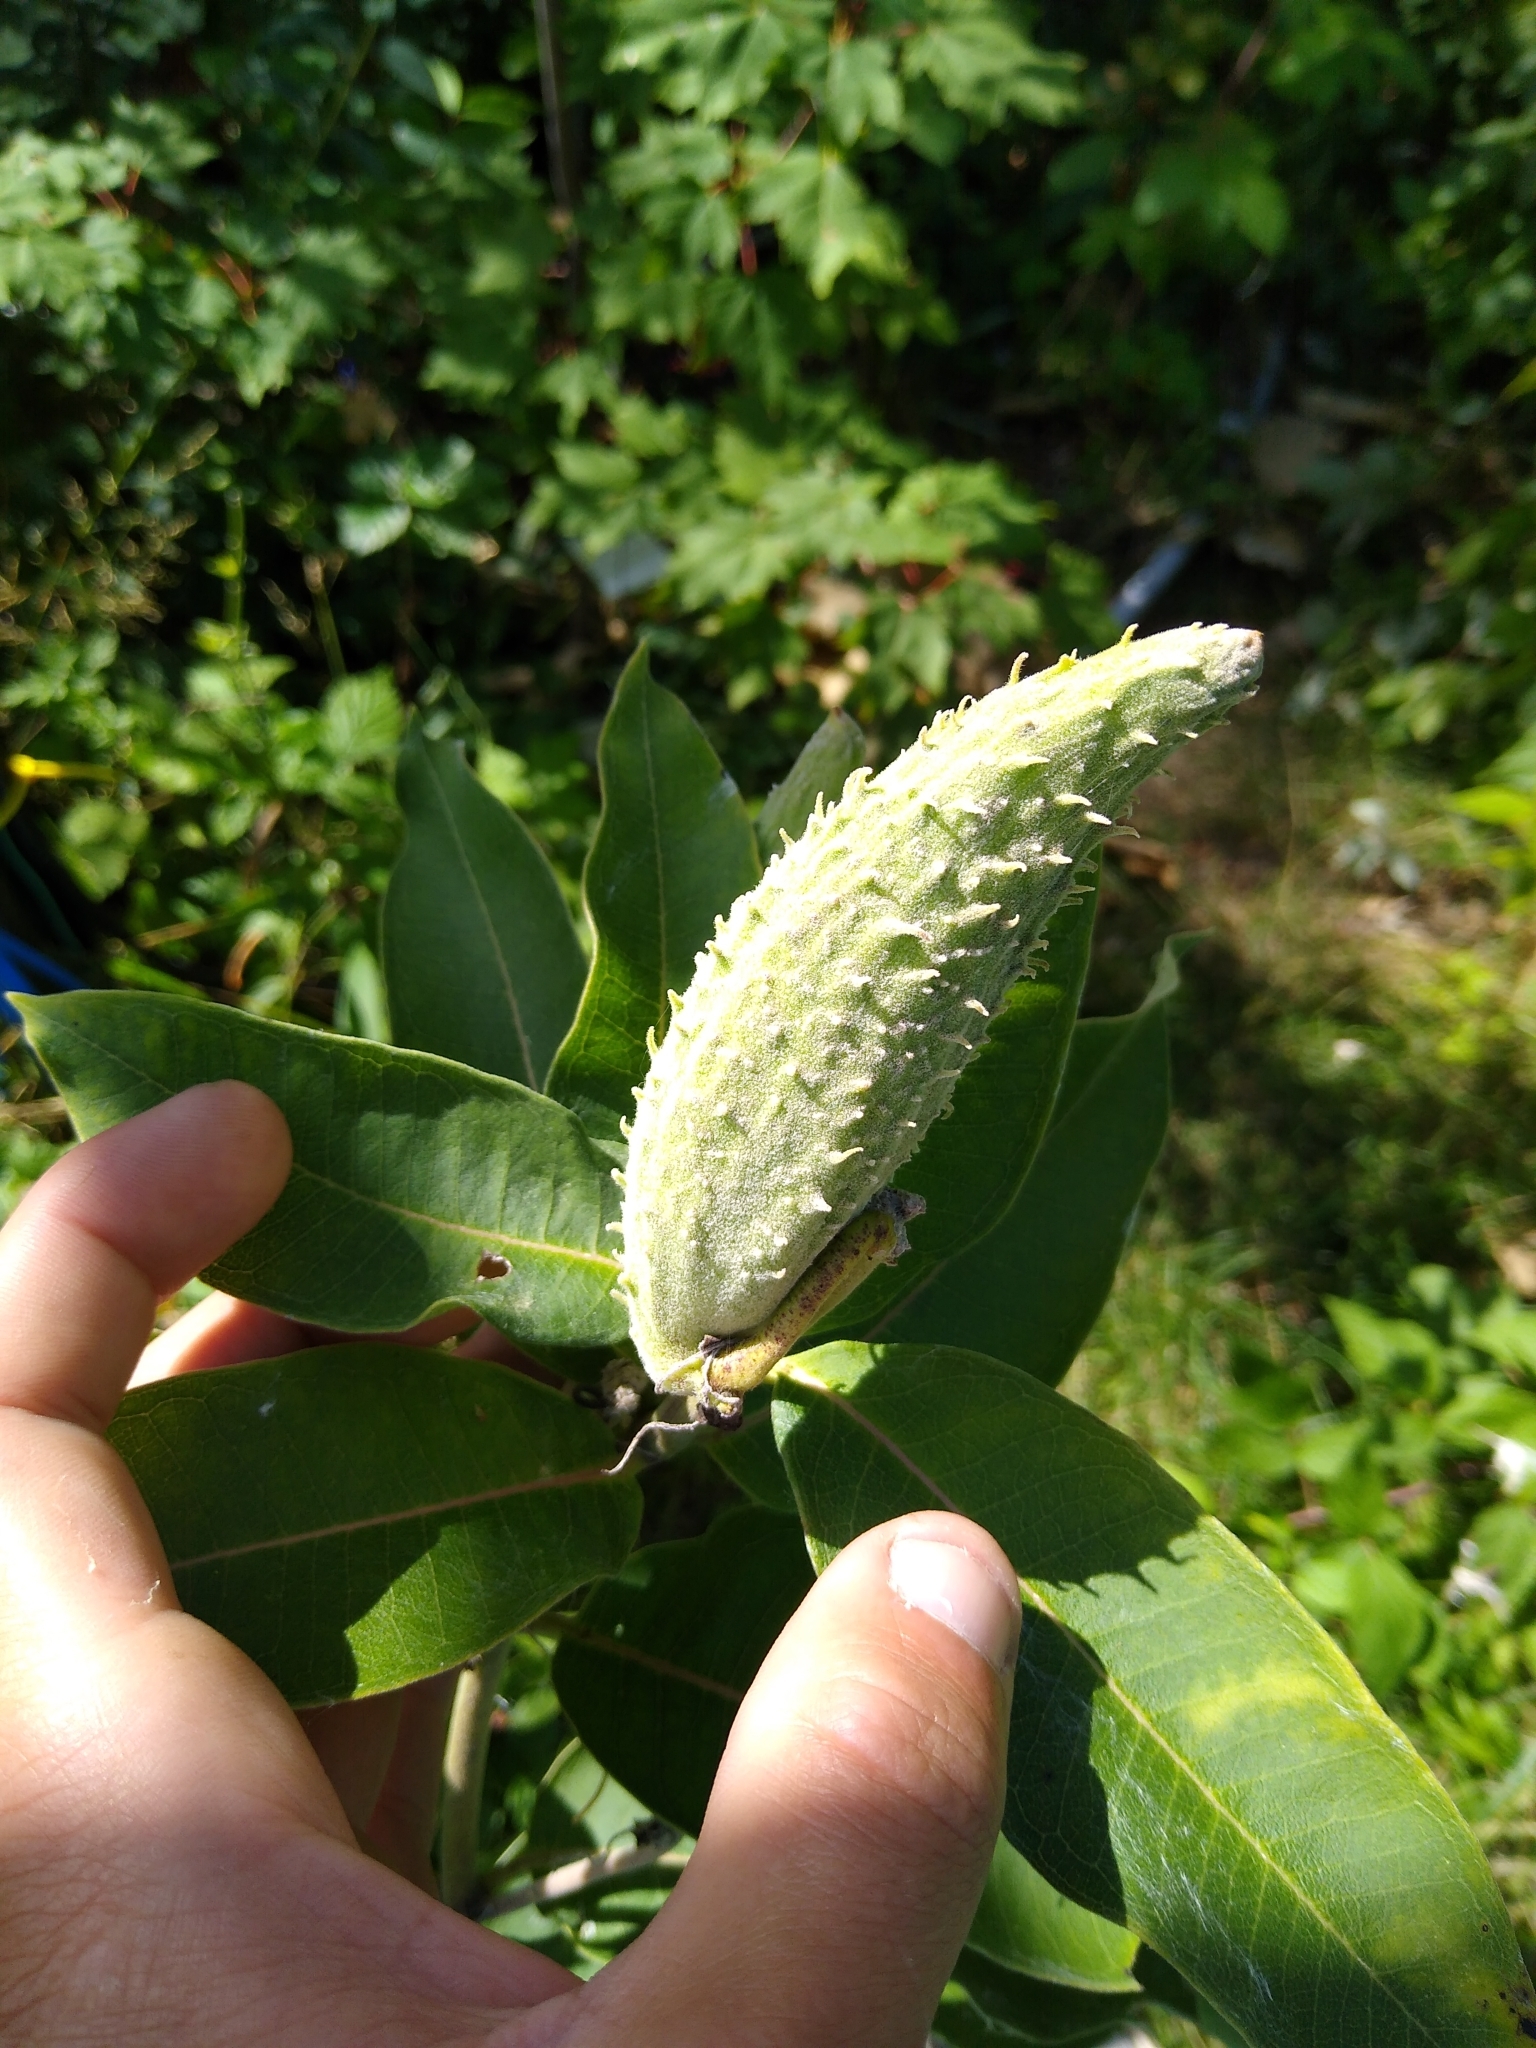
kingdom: Plantae
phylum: Tracheophyta
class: Magnoliopsida
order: Gentianales
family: Apocynaceae
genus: Asclepias
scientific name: Asclepias syriaca
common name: Common milkweed
